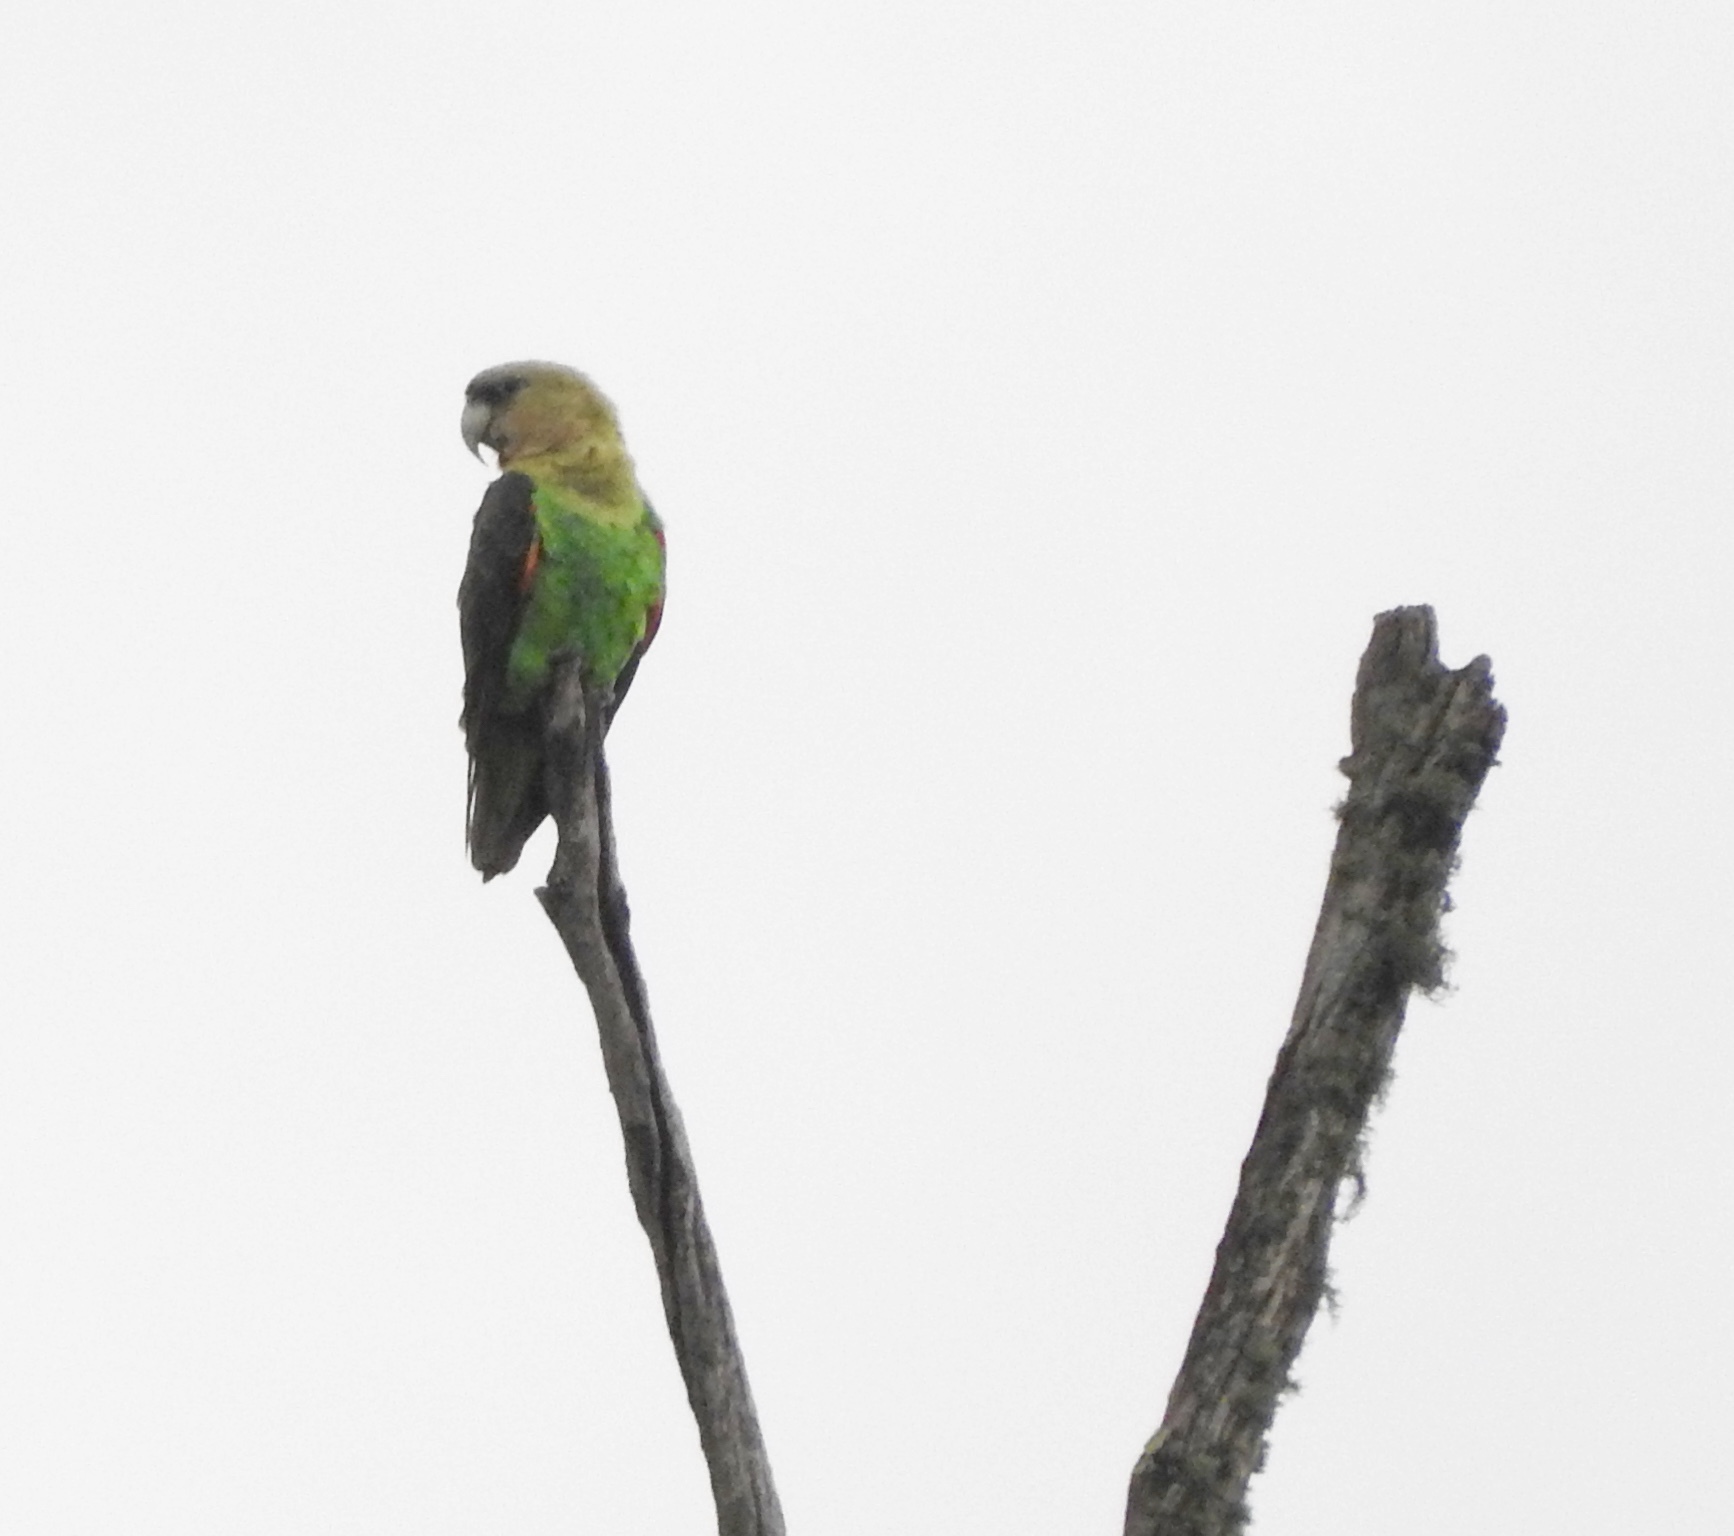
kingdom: Animalia
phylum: Chordata
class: Aves
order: Psittaciformes
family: Psittacidae
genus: Poicephalus
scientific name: Poicephalus robustus
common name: Cape parrot
